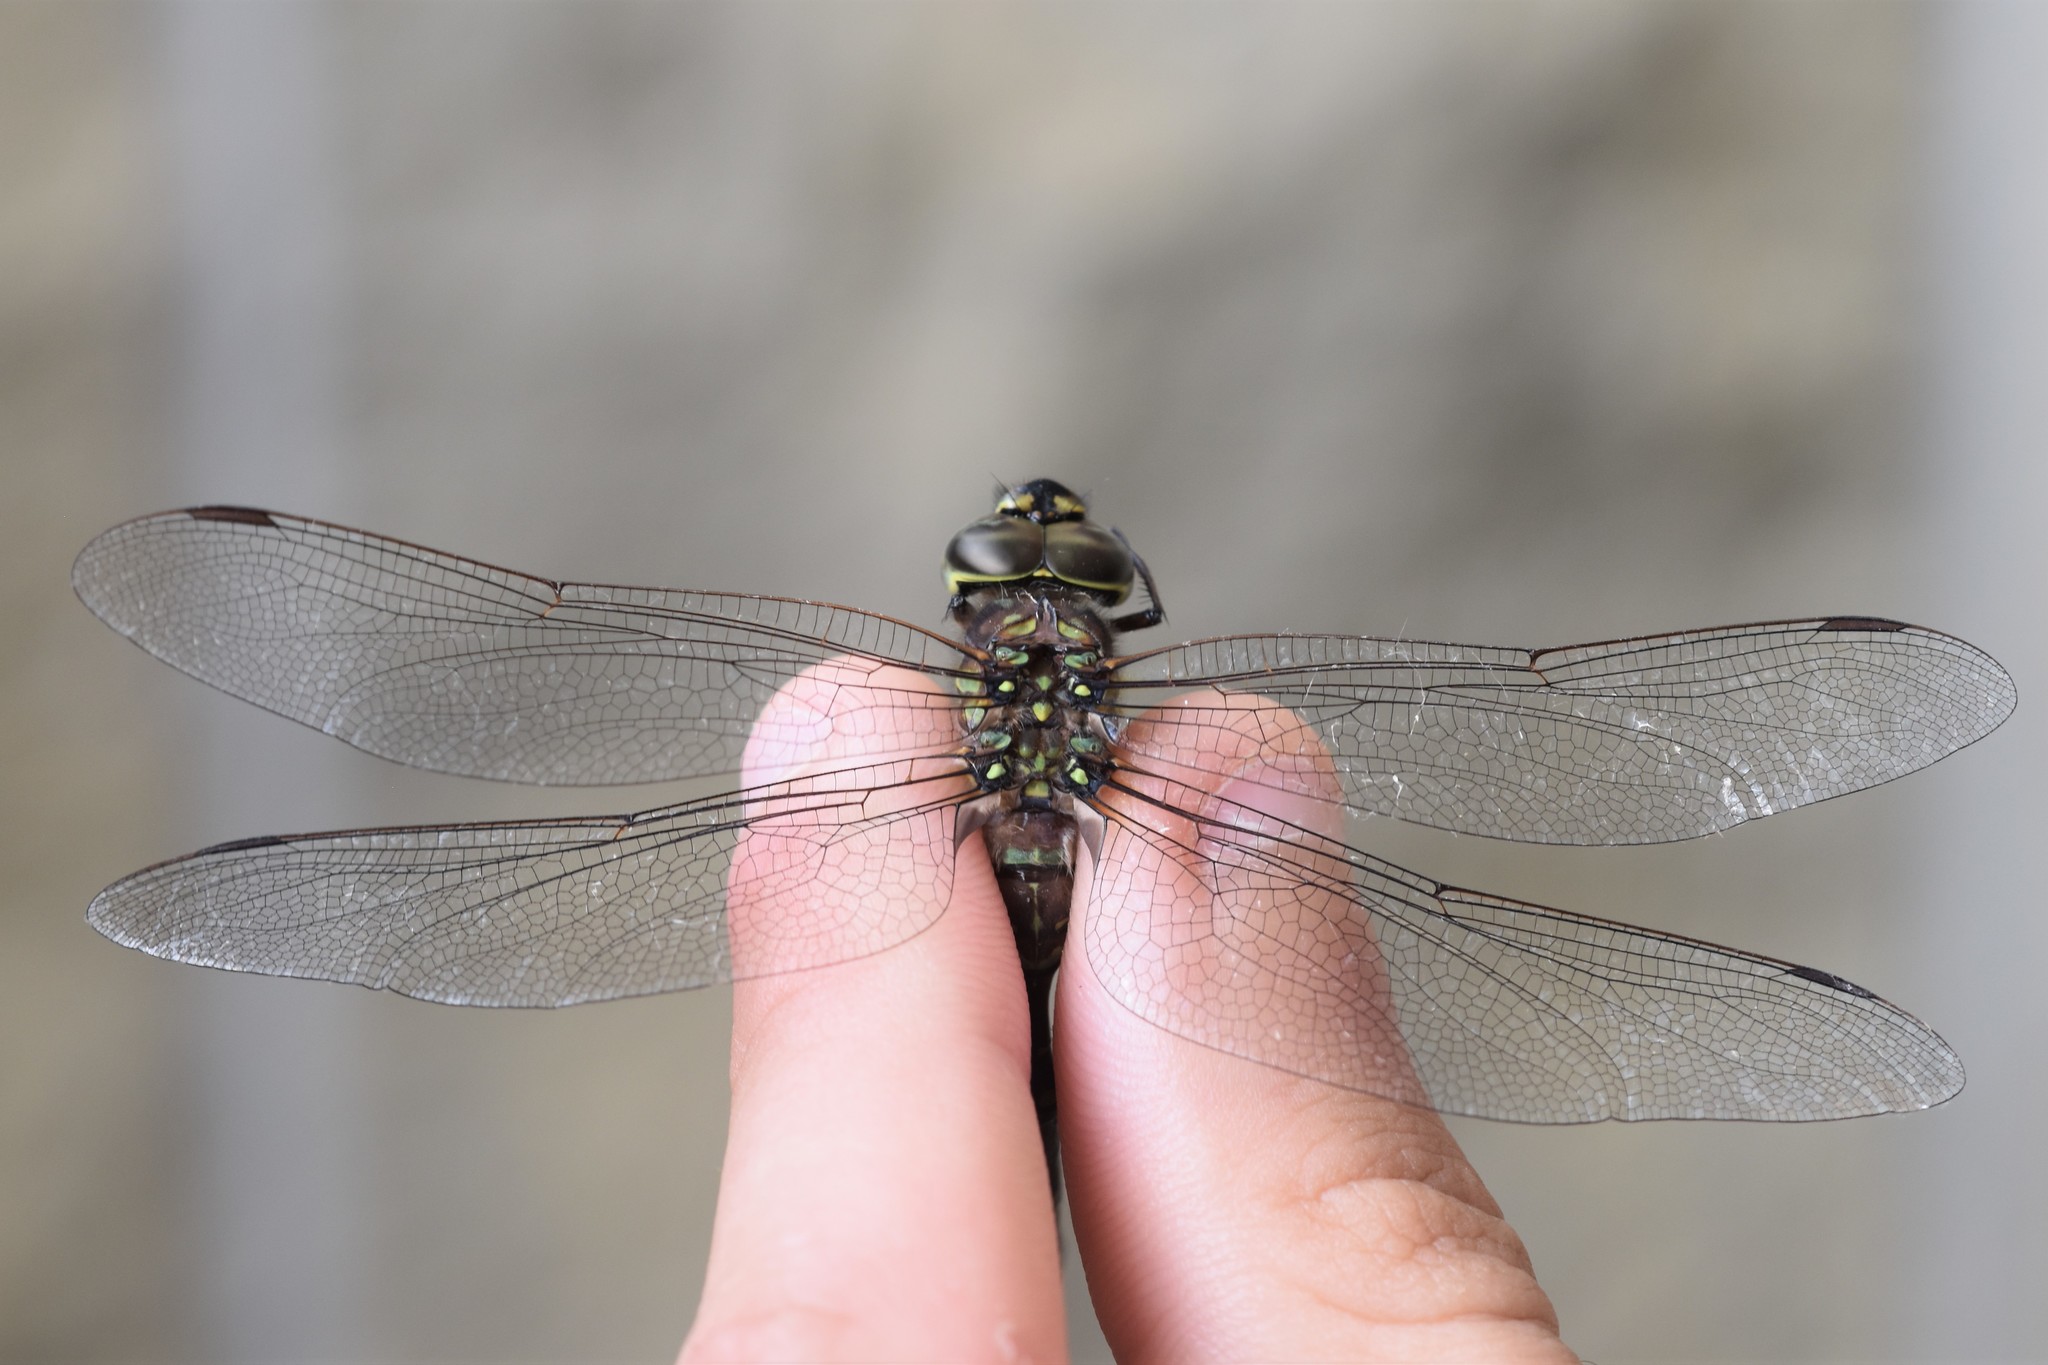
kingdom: Animalia
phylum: Arthropoda
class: Insecta
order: Odonata
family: Aeshnidae
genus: Aeshna
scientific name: Aeshna canadensis
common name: Canada darner
